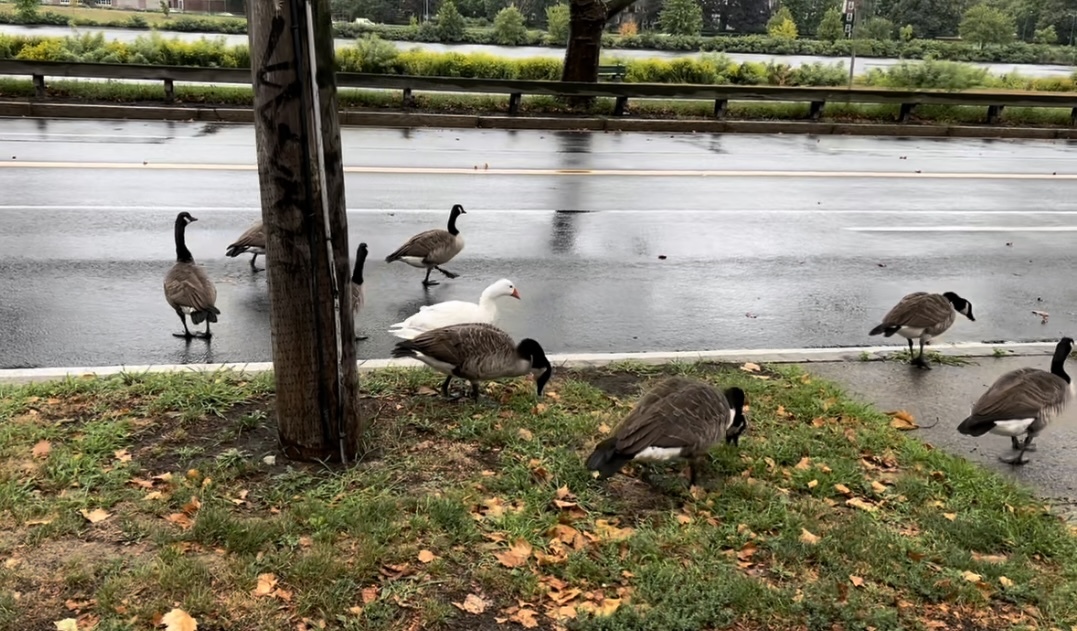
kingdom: Animalia
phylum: Chordata
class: Aves
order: Anseriformes
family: Anatidae
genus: Branta
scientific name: Branta canadensis
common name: Canada goose
